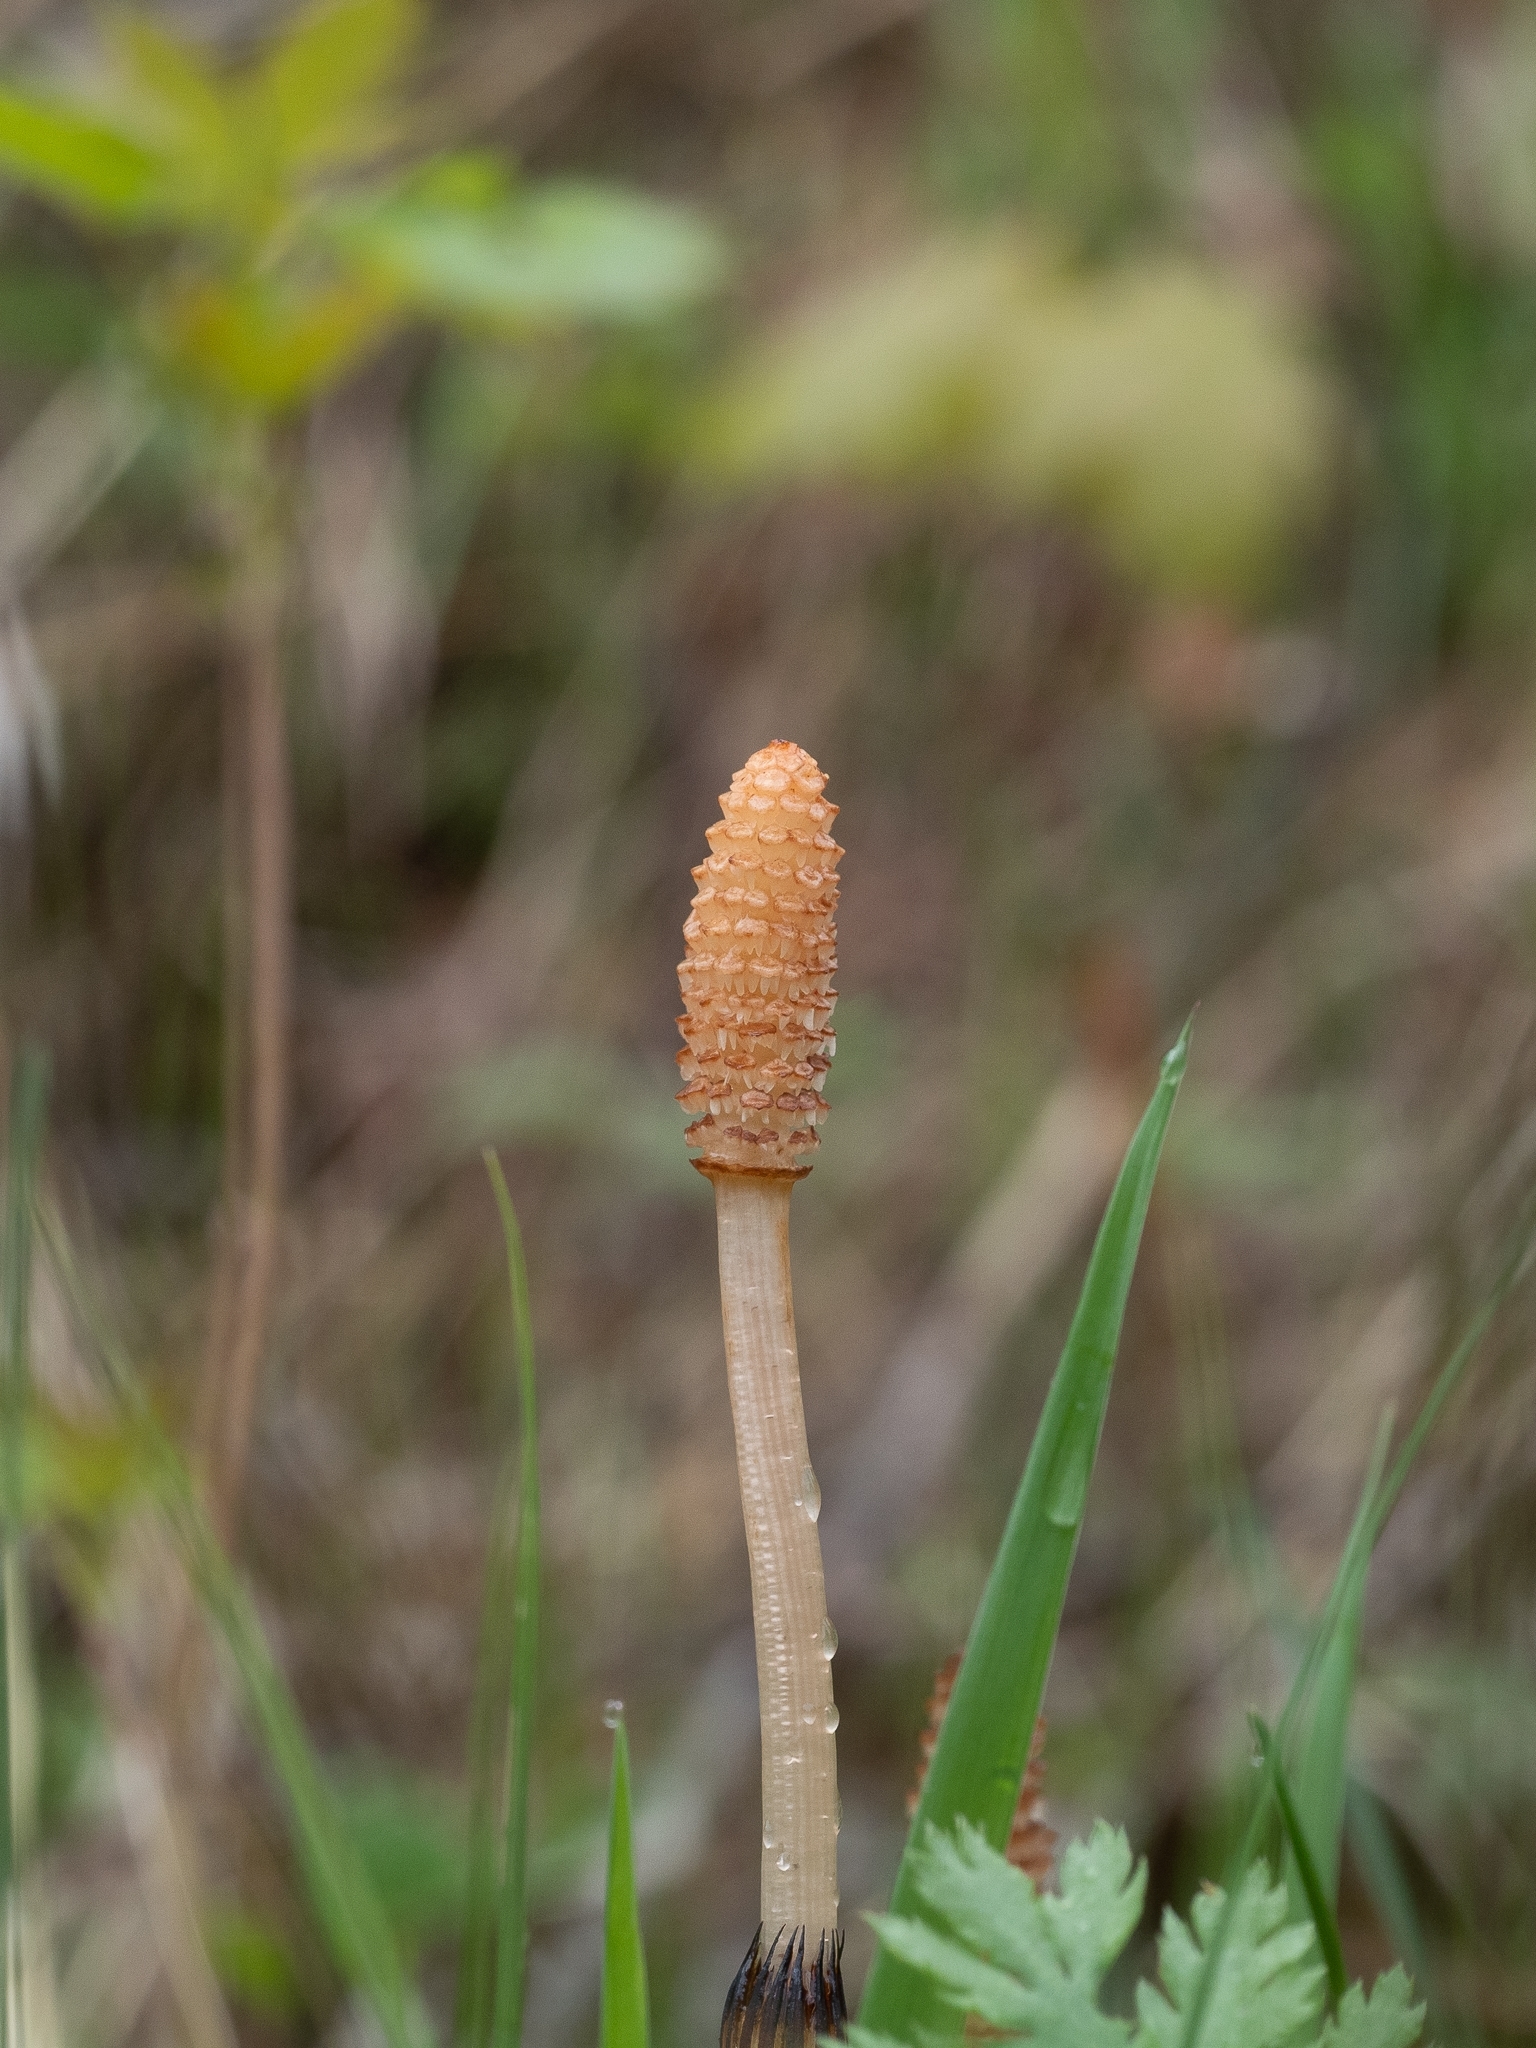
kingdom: Plantae
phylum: Tracheophyta
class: Polypodiopsida
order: Equisetales
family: Equisetaceae
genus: Equisetum
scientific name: Equisetum arvense
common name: Field horsetail
